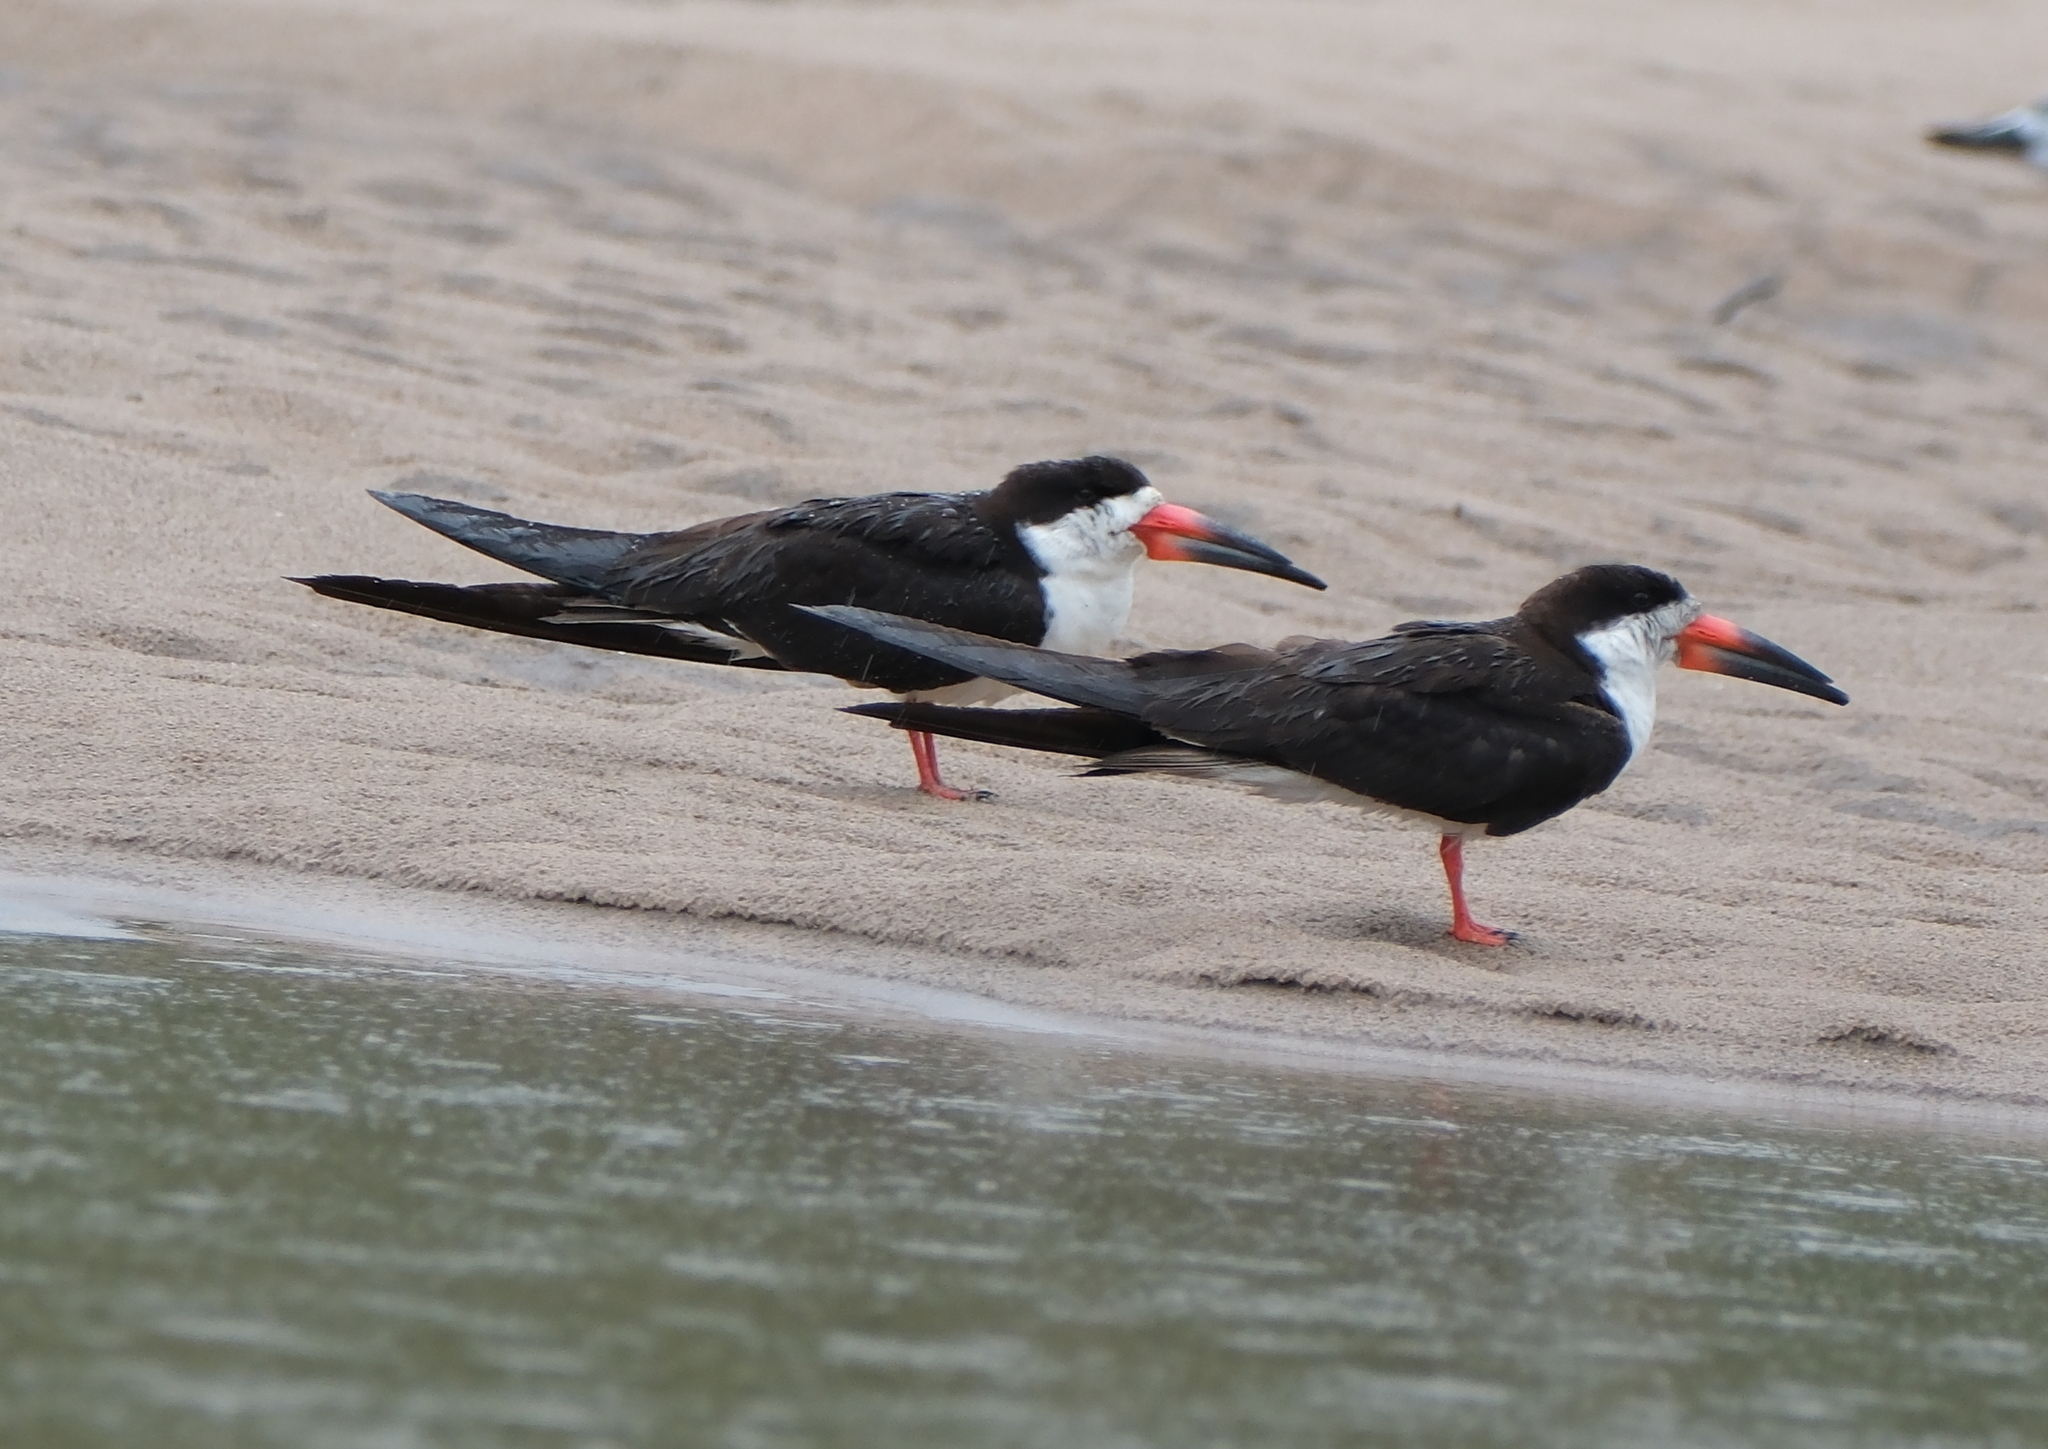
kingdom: Animalia
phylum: Chordata
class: Aves
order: Charadriiformes
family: Laridae
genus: Rynchops
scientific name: Rynchops niger
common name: Black skimmer
